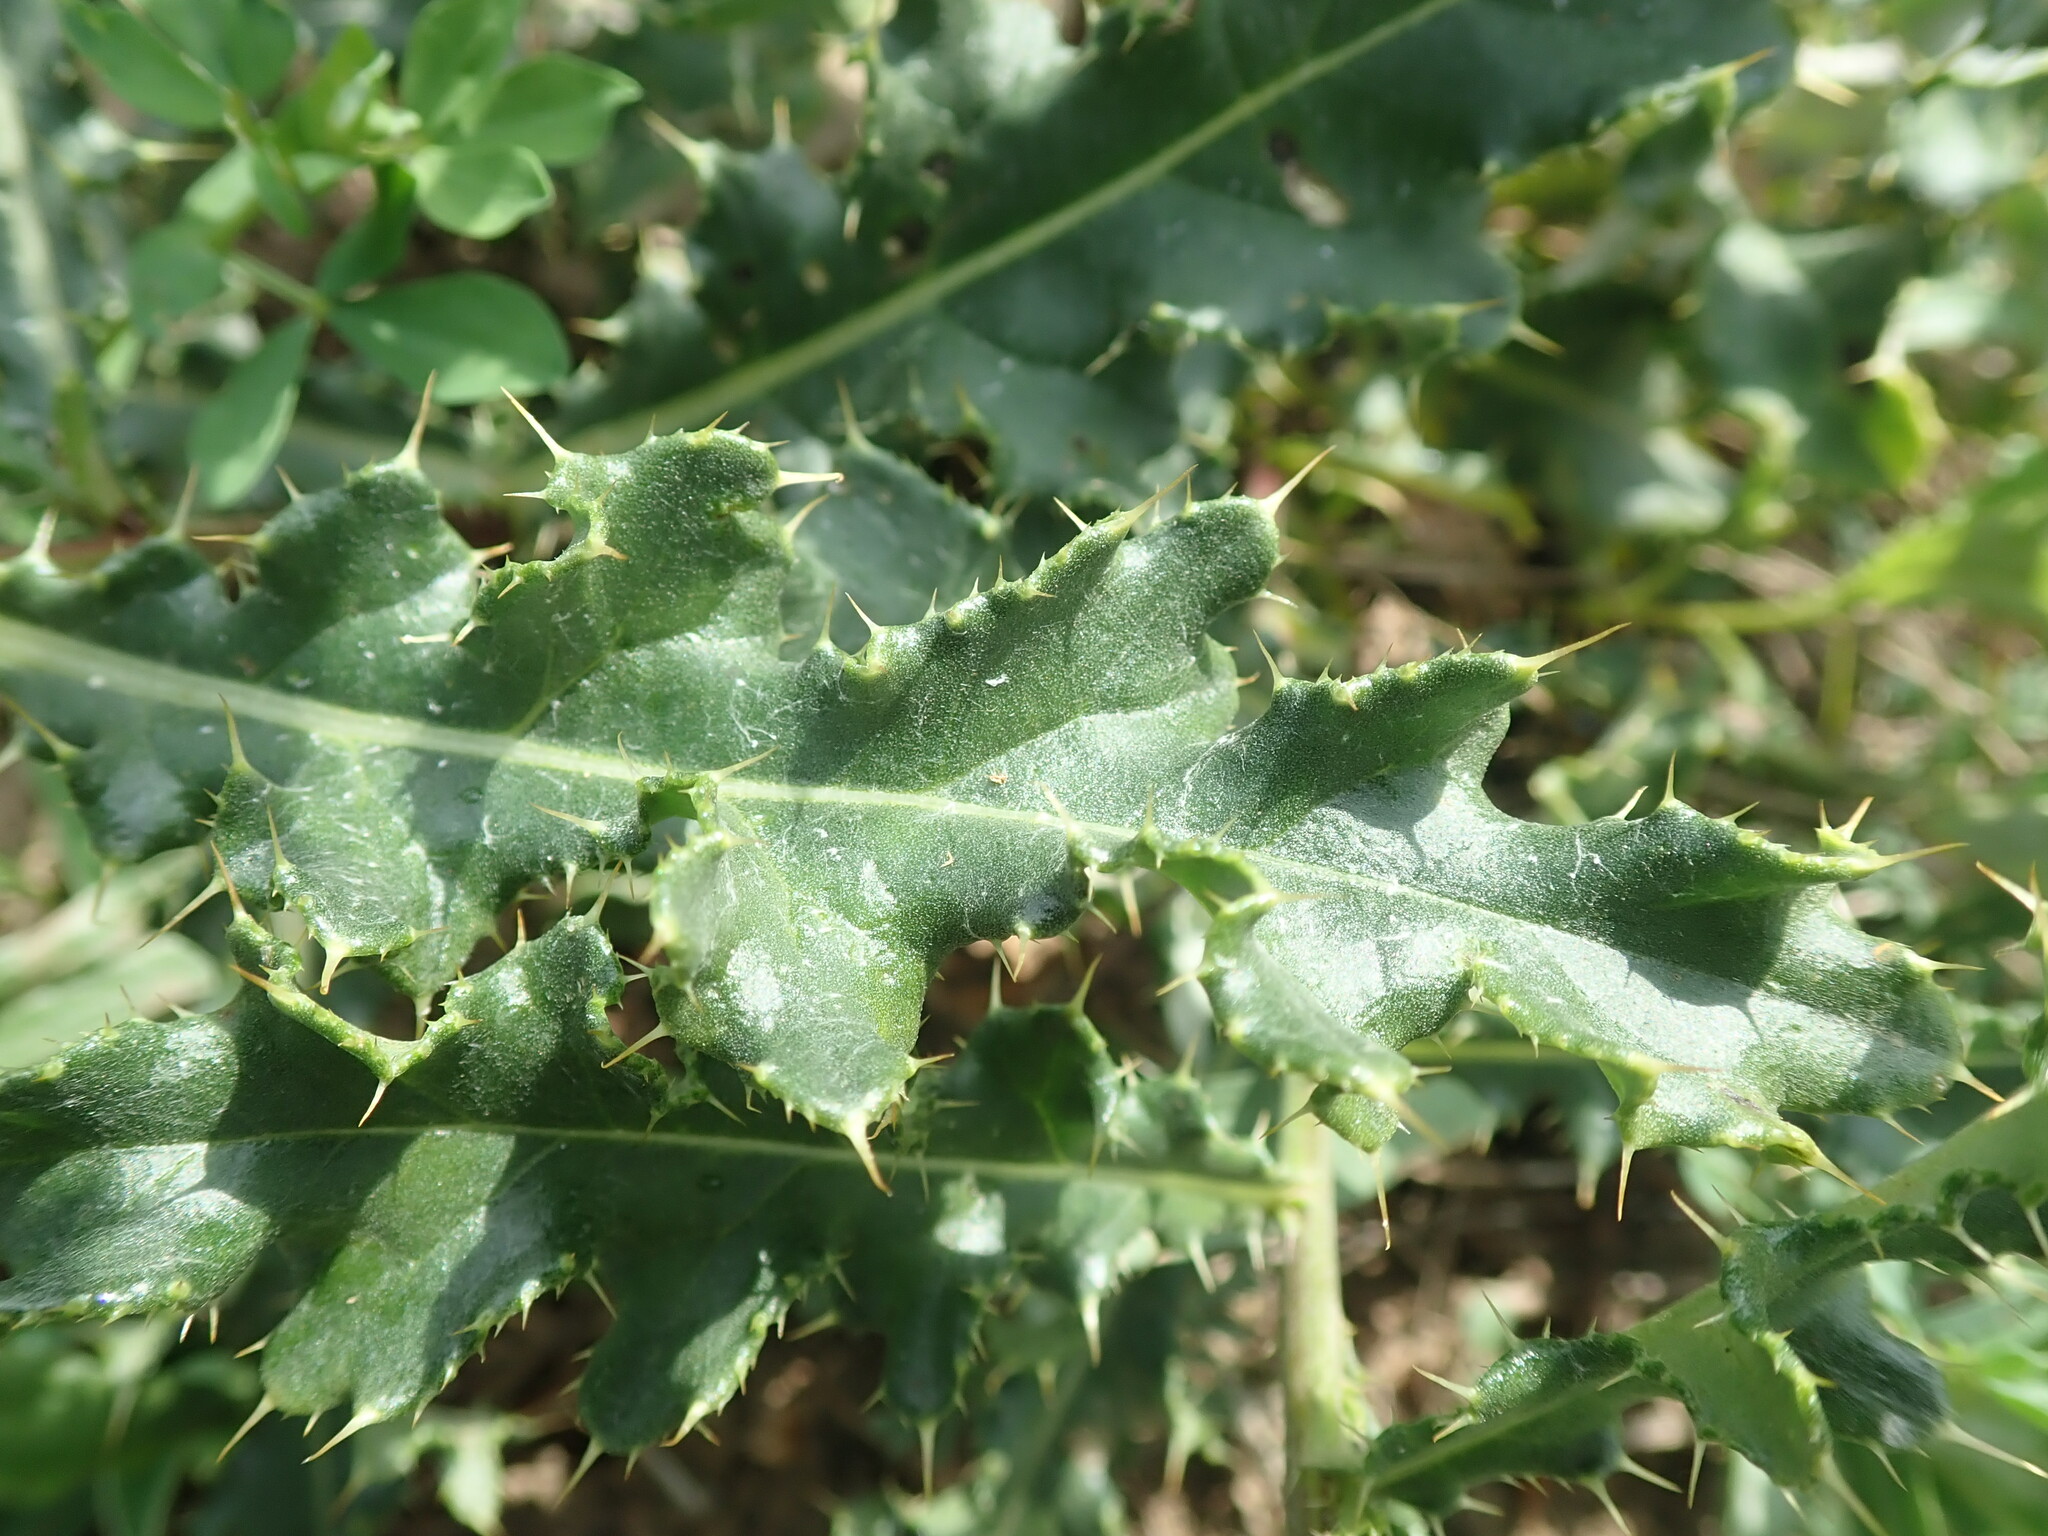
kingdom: Plantae
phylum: Tracheophyta
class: Magnoliopsida
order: Asterales
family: Asteraceae
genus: Cirsium
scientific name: Cirsium arvense
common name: Creeping thistle
